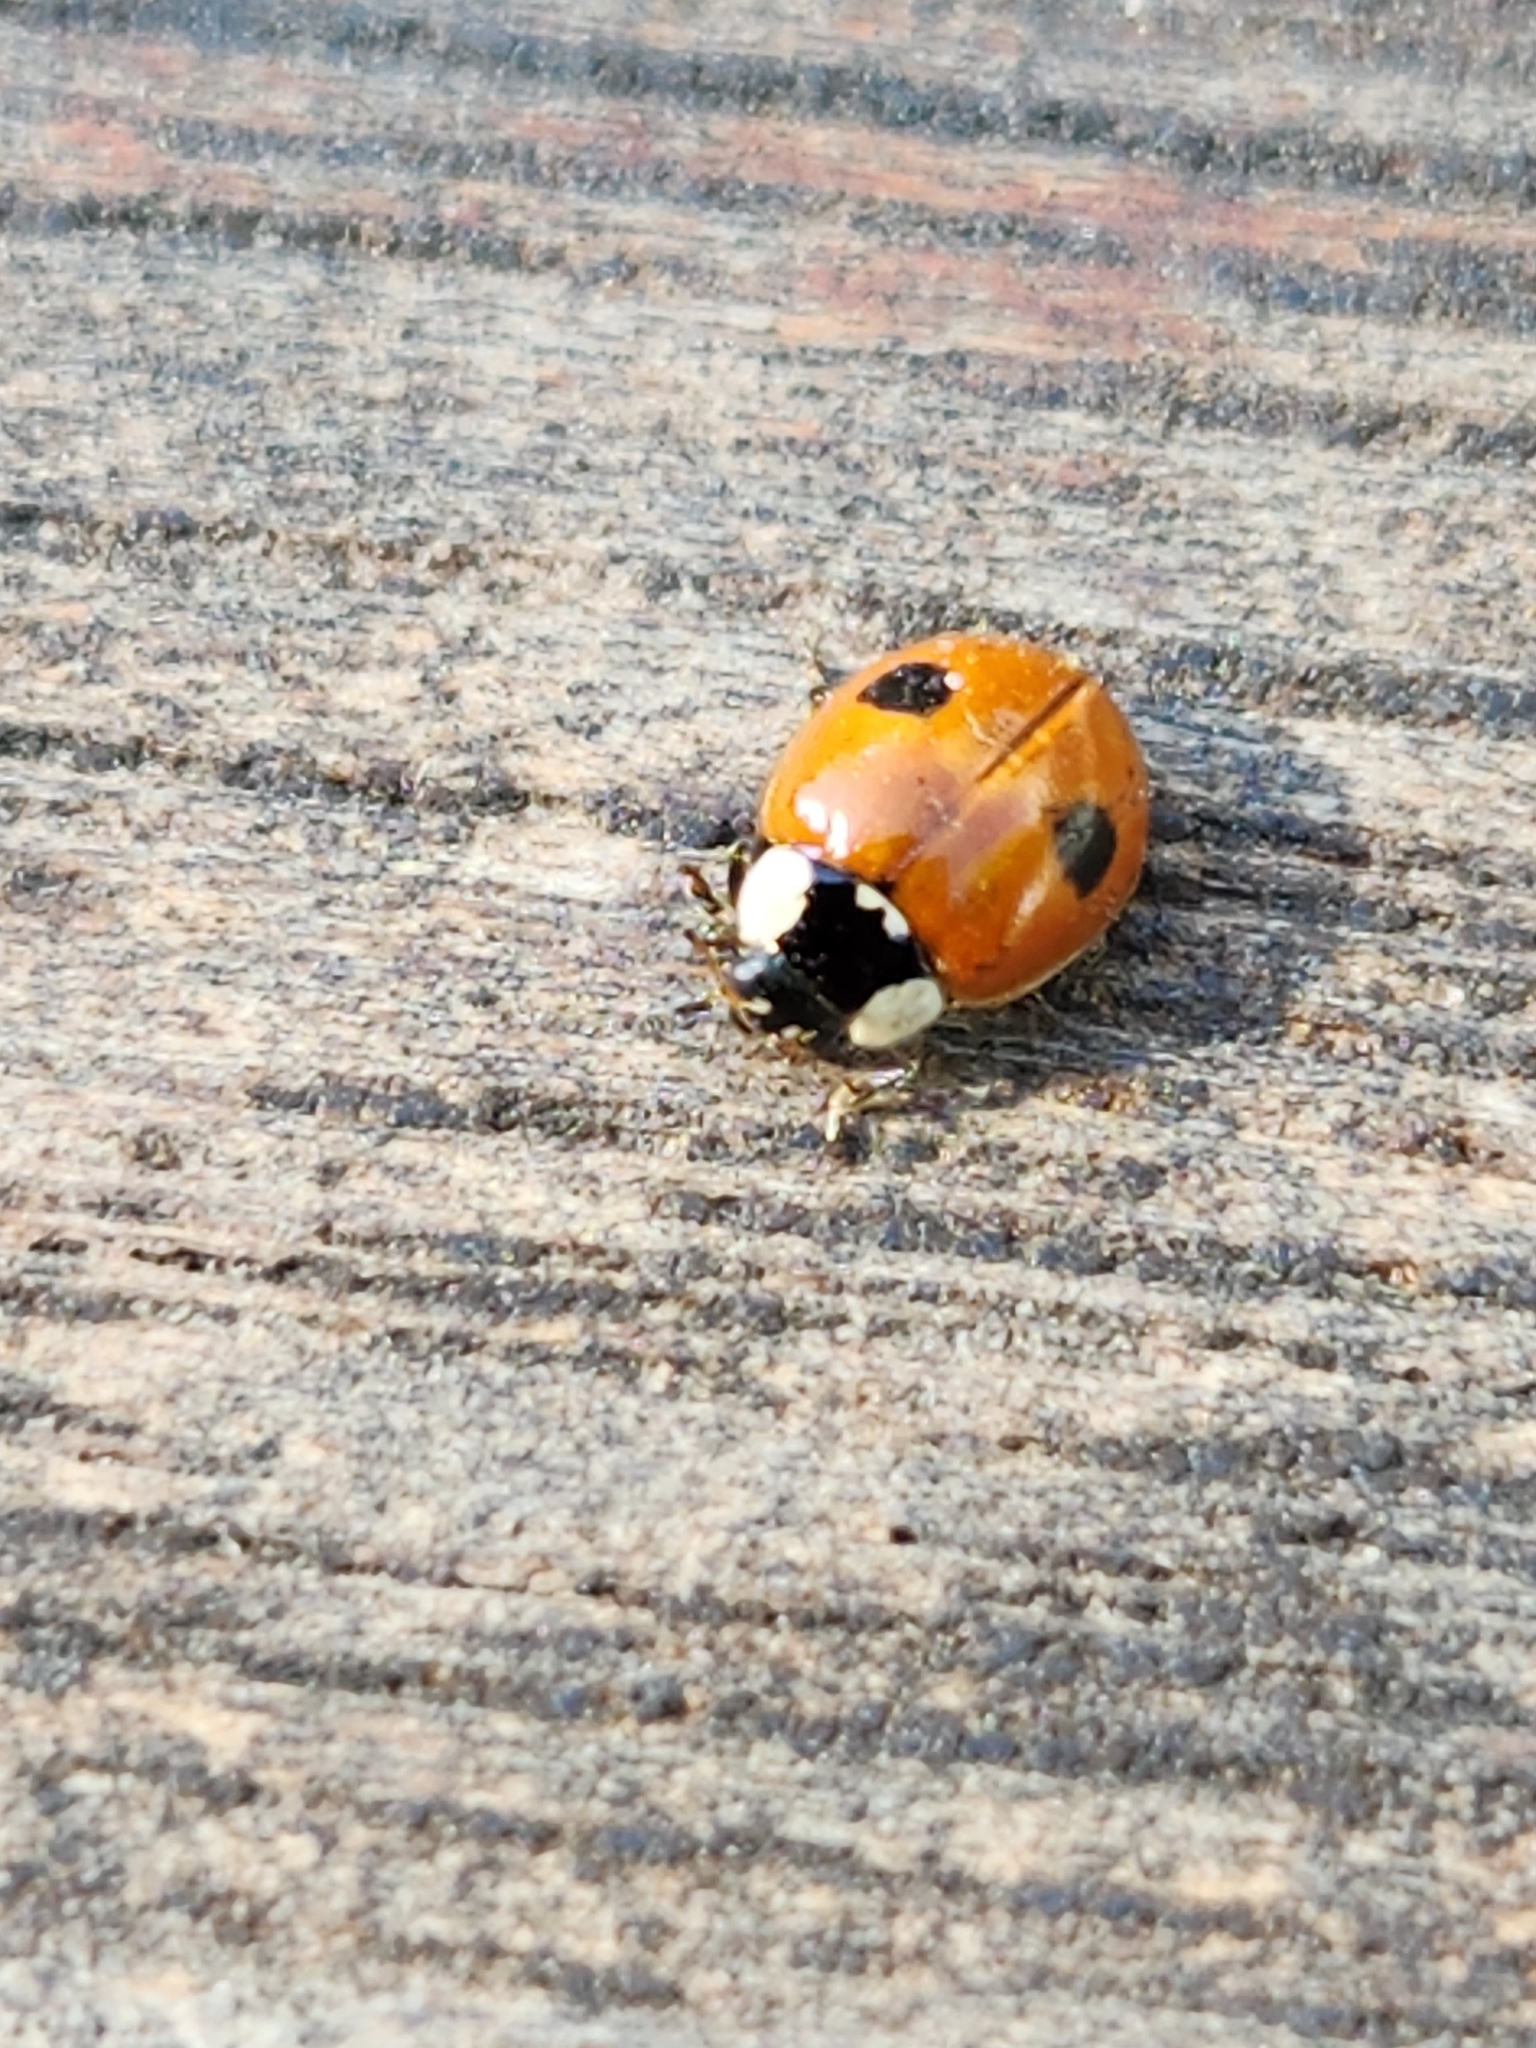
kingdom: Animalia
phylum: Arthropoda
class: Insecta
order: Coleoptera
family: Coccinellidae
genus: Adalia
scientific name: Adalia bipunctata
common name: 2-spot ladybird
